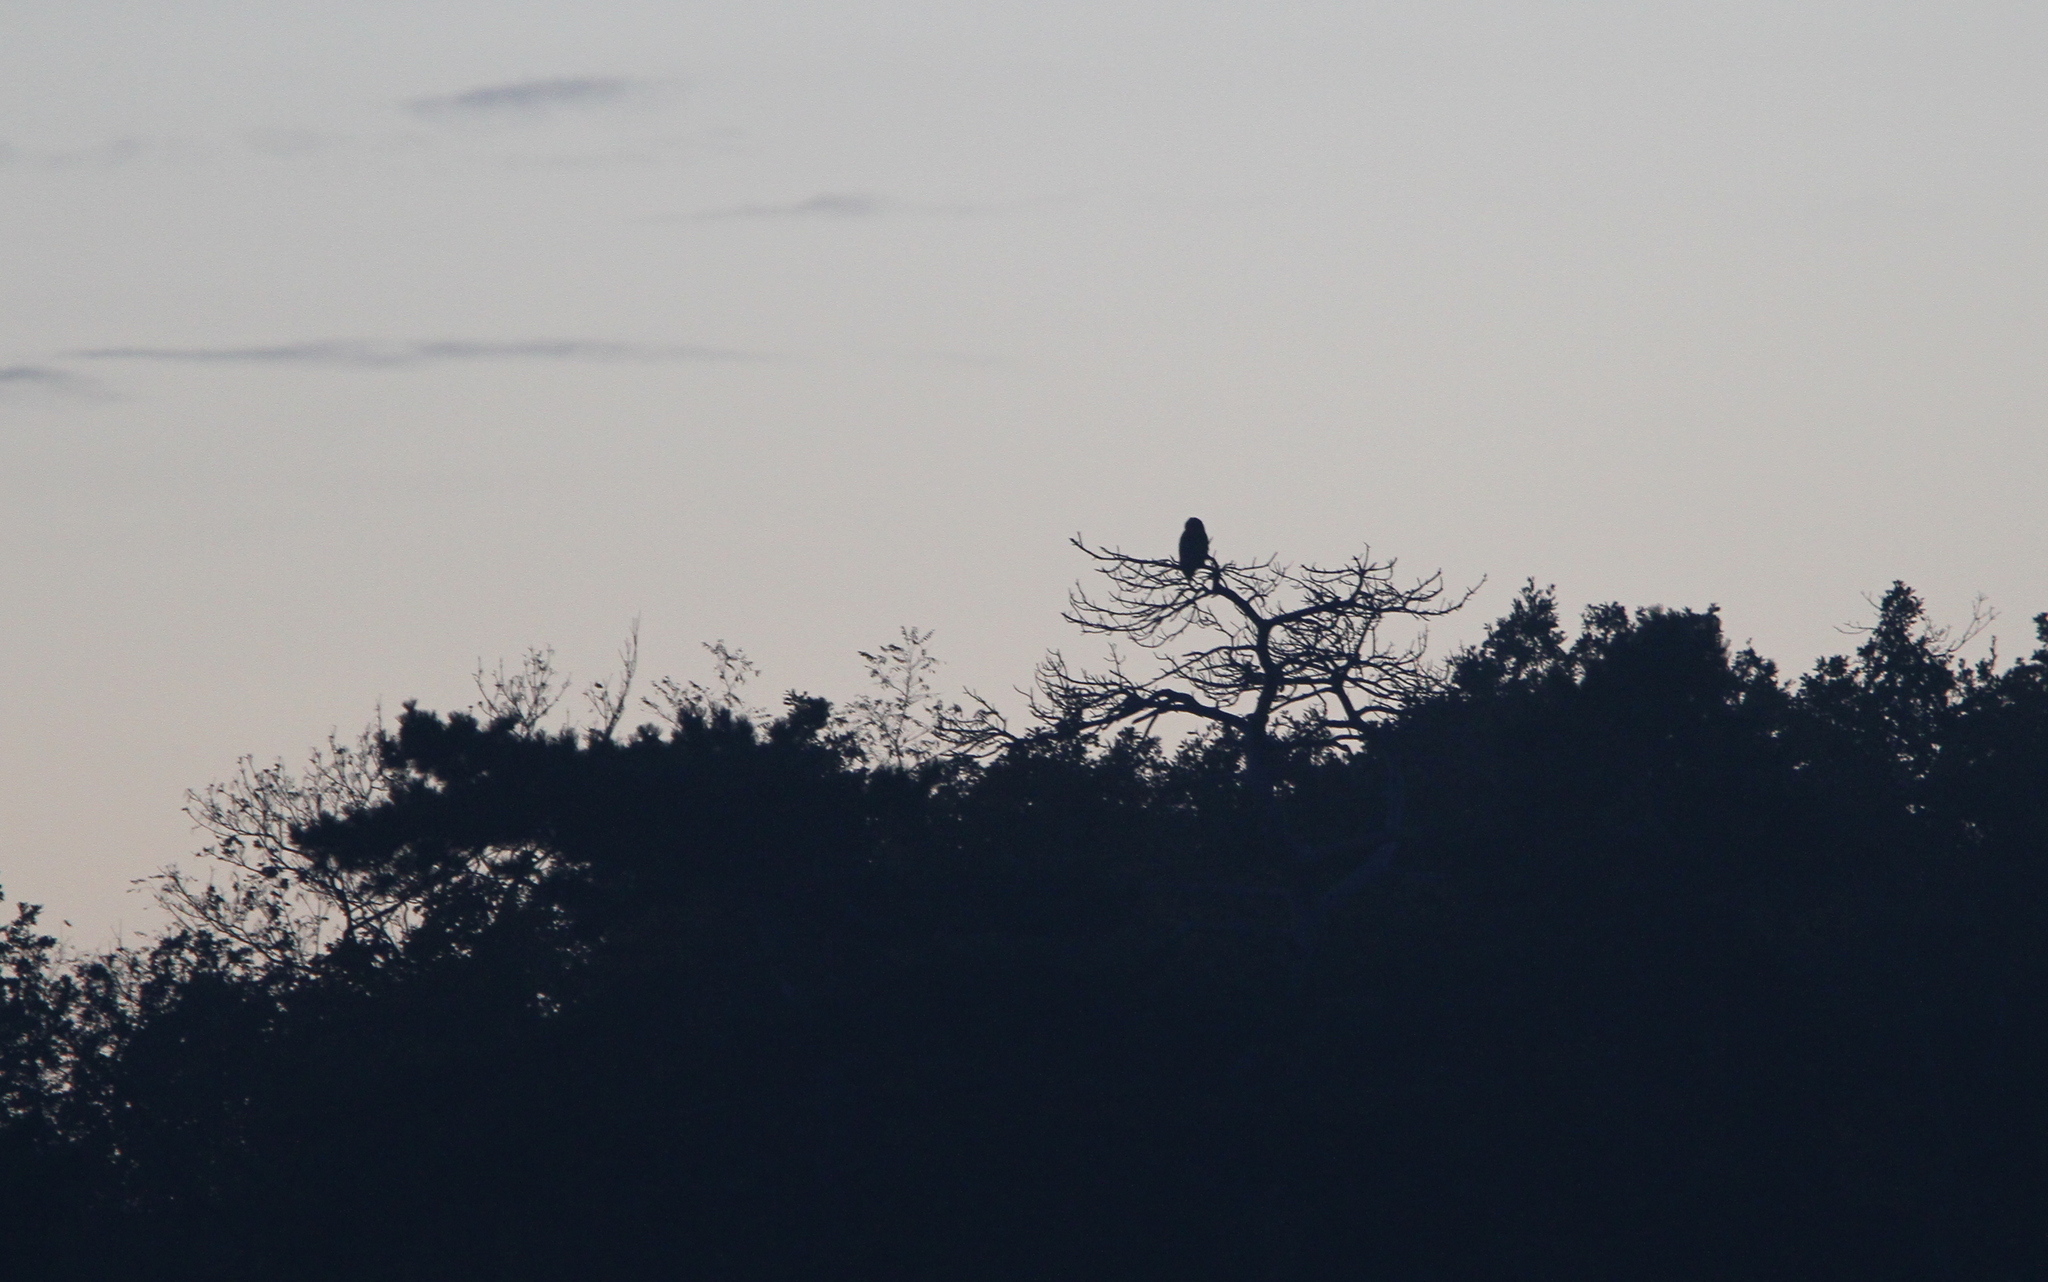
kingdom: Animalia
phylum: Chordata
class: Aves
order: Strigiformes
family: Strigidae
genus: Bubo
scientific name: Bubo bubo
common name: Eurasian eagle-owl
